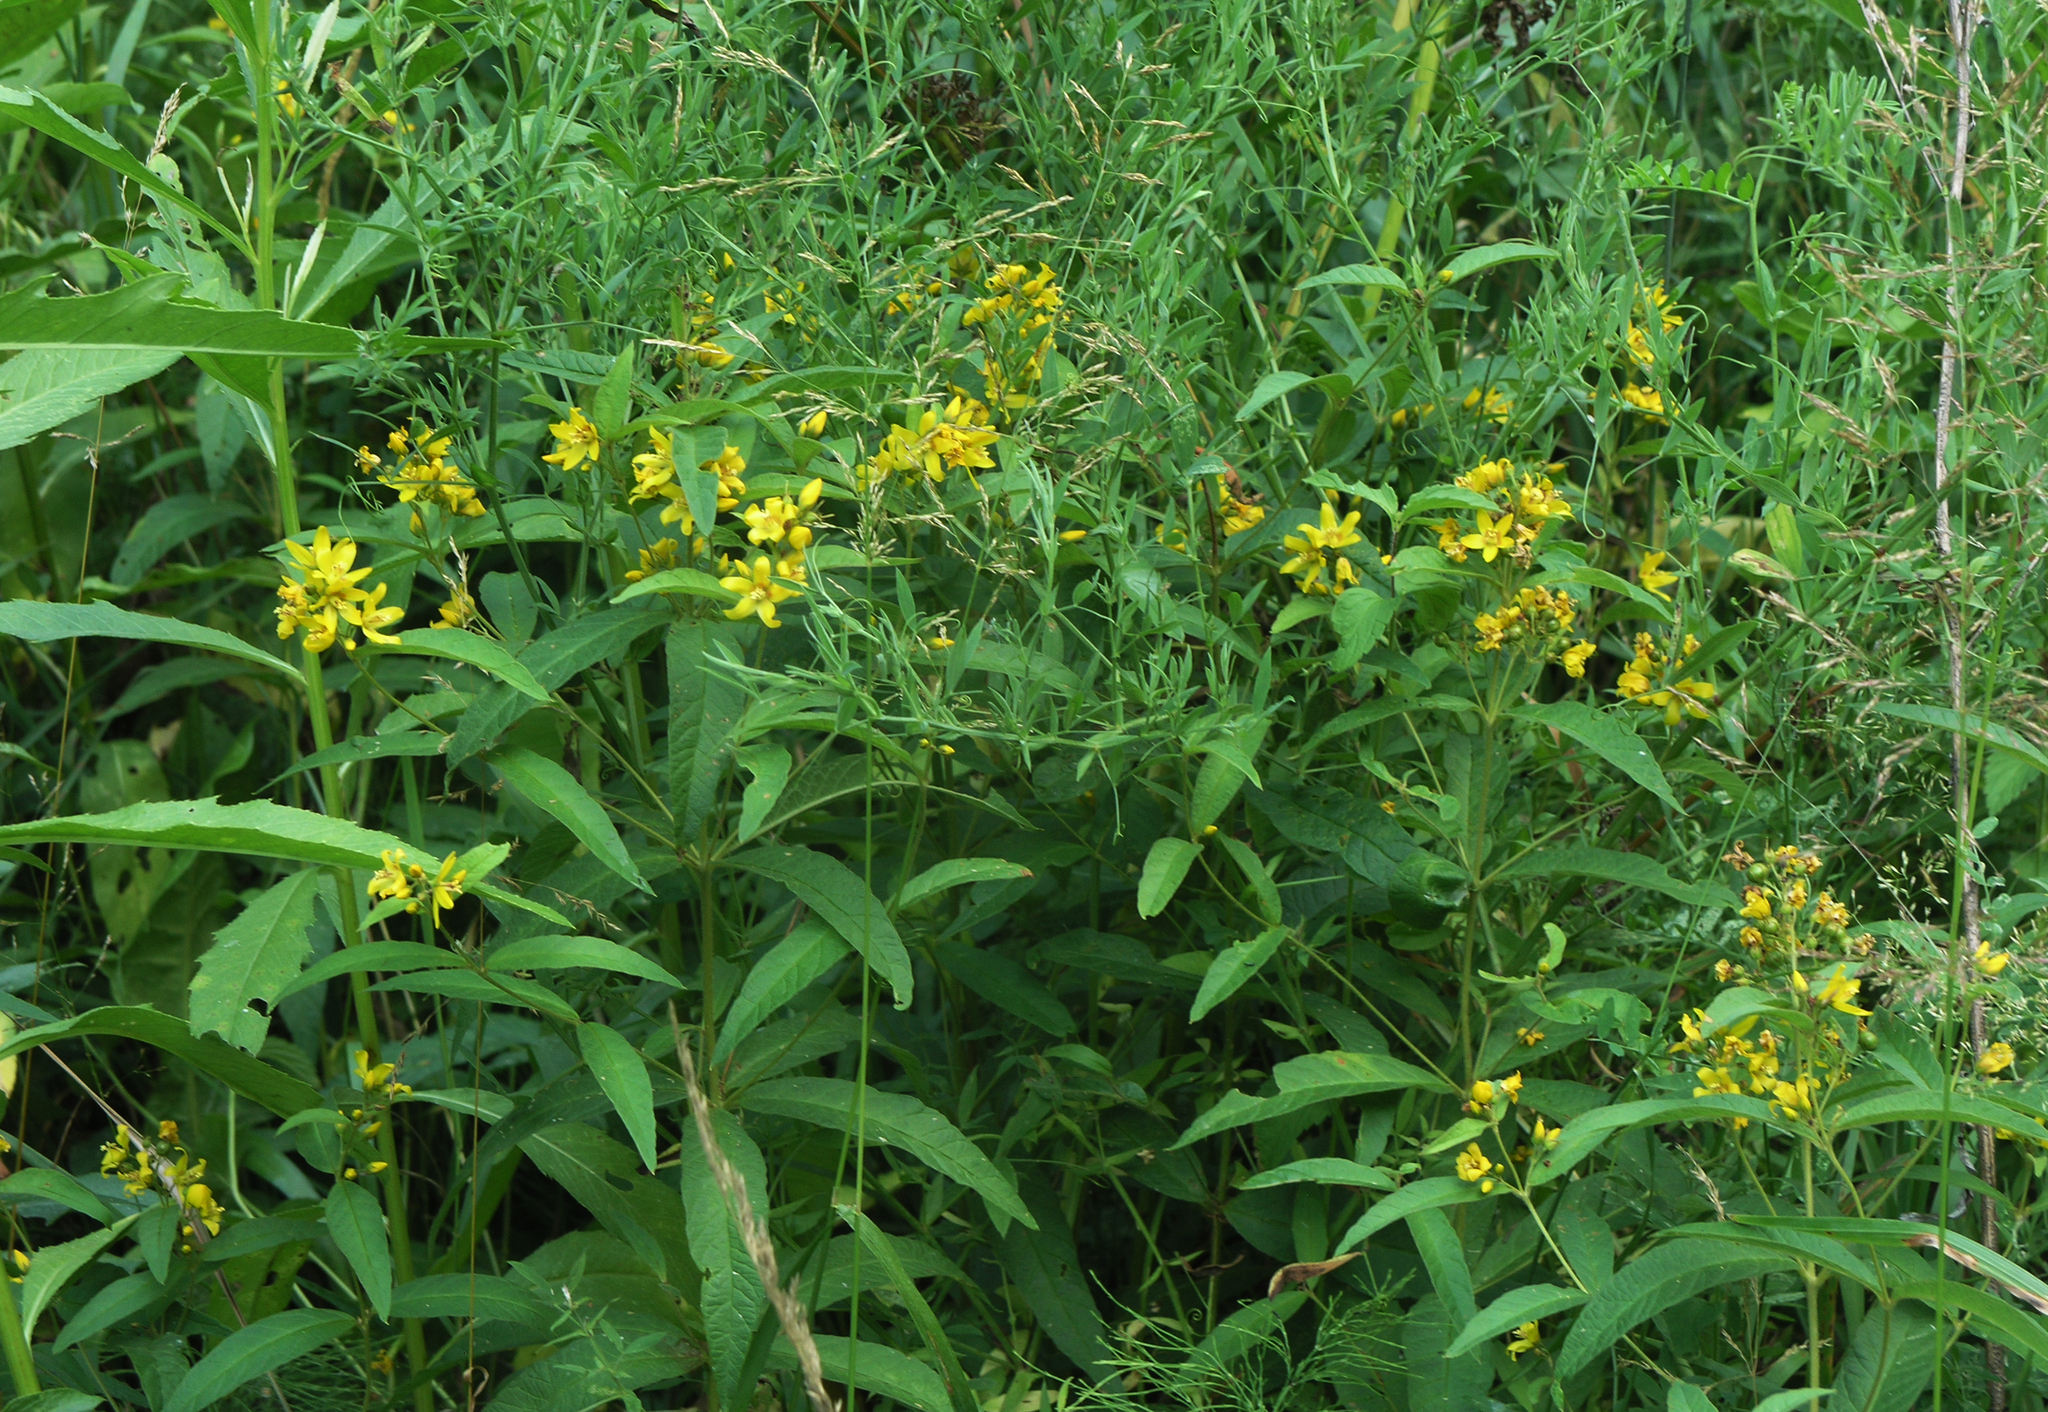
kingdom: Plantae
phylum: Tracheophyta
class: Magnoliopsida
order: Ericales
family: Primulaceae
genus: Lysimachia
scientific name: Lysimachia vulgaris
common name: Yellow loosestrife
